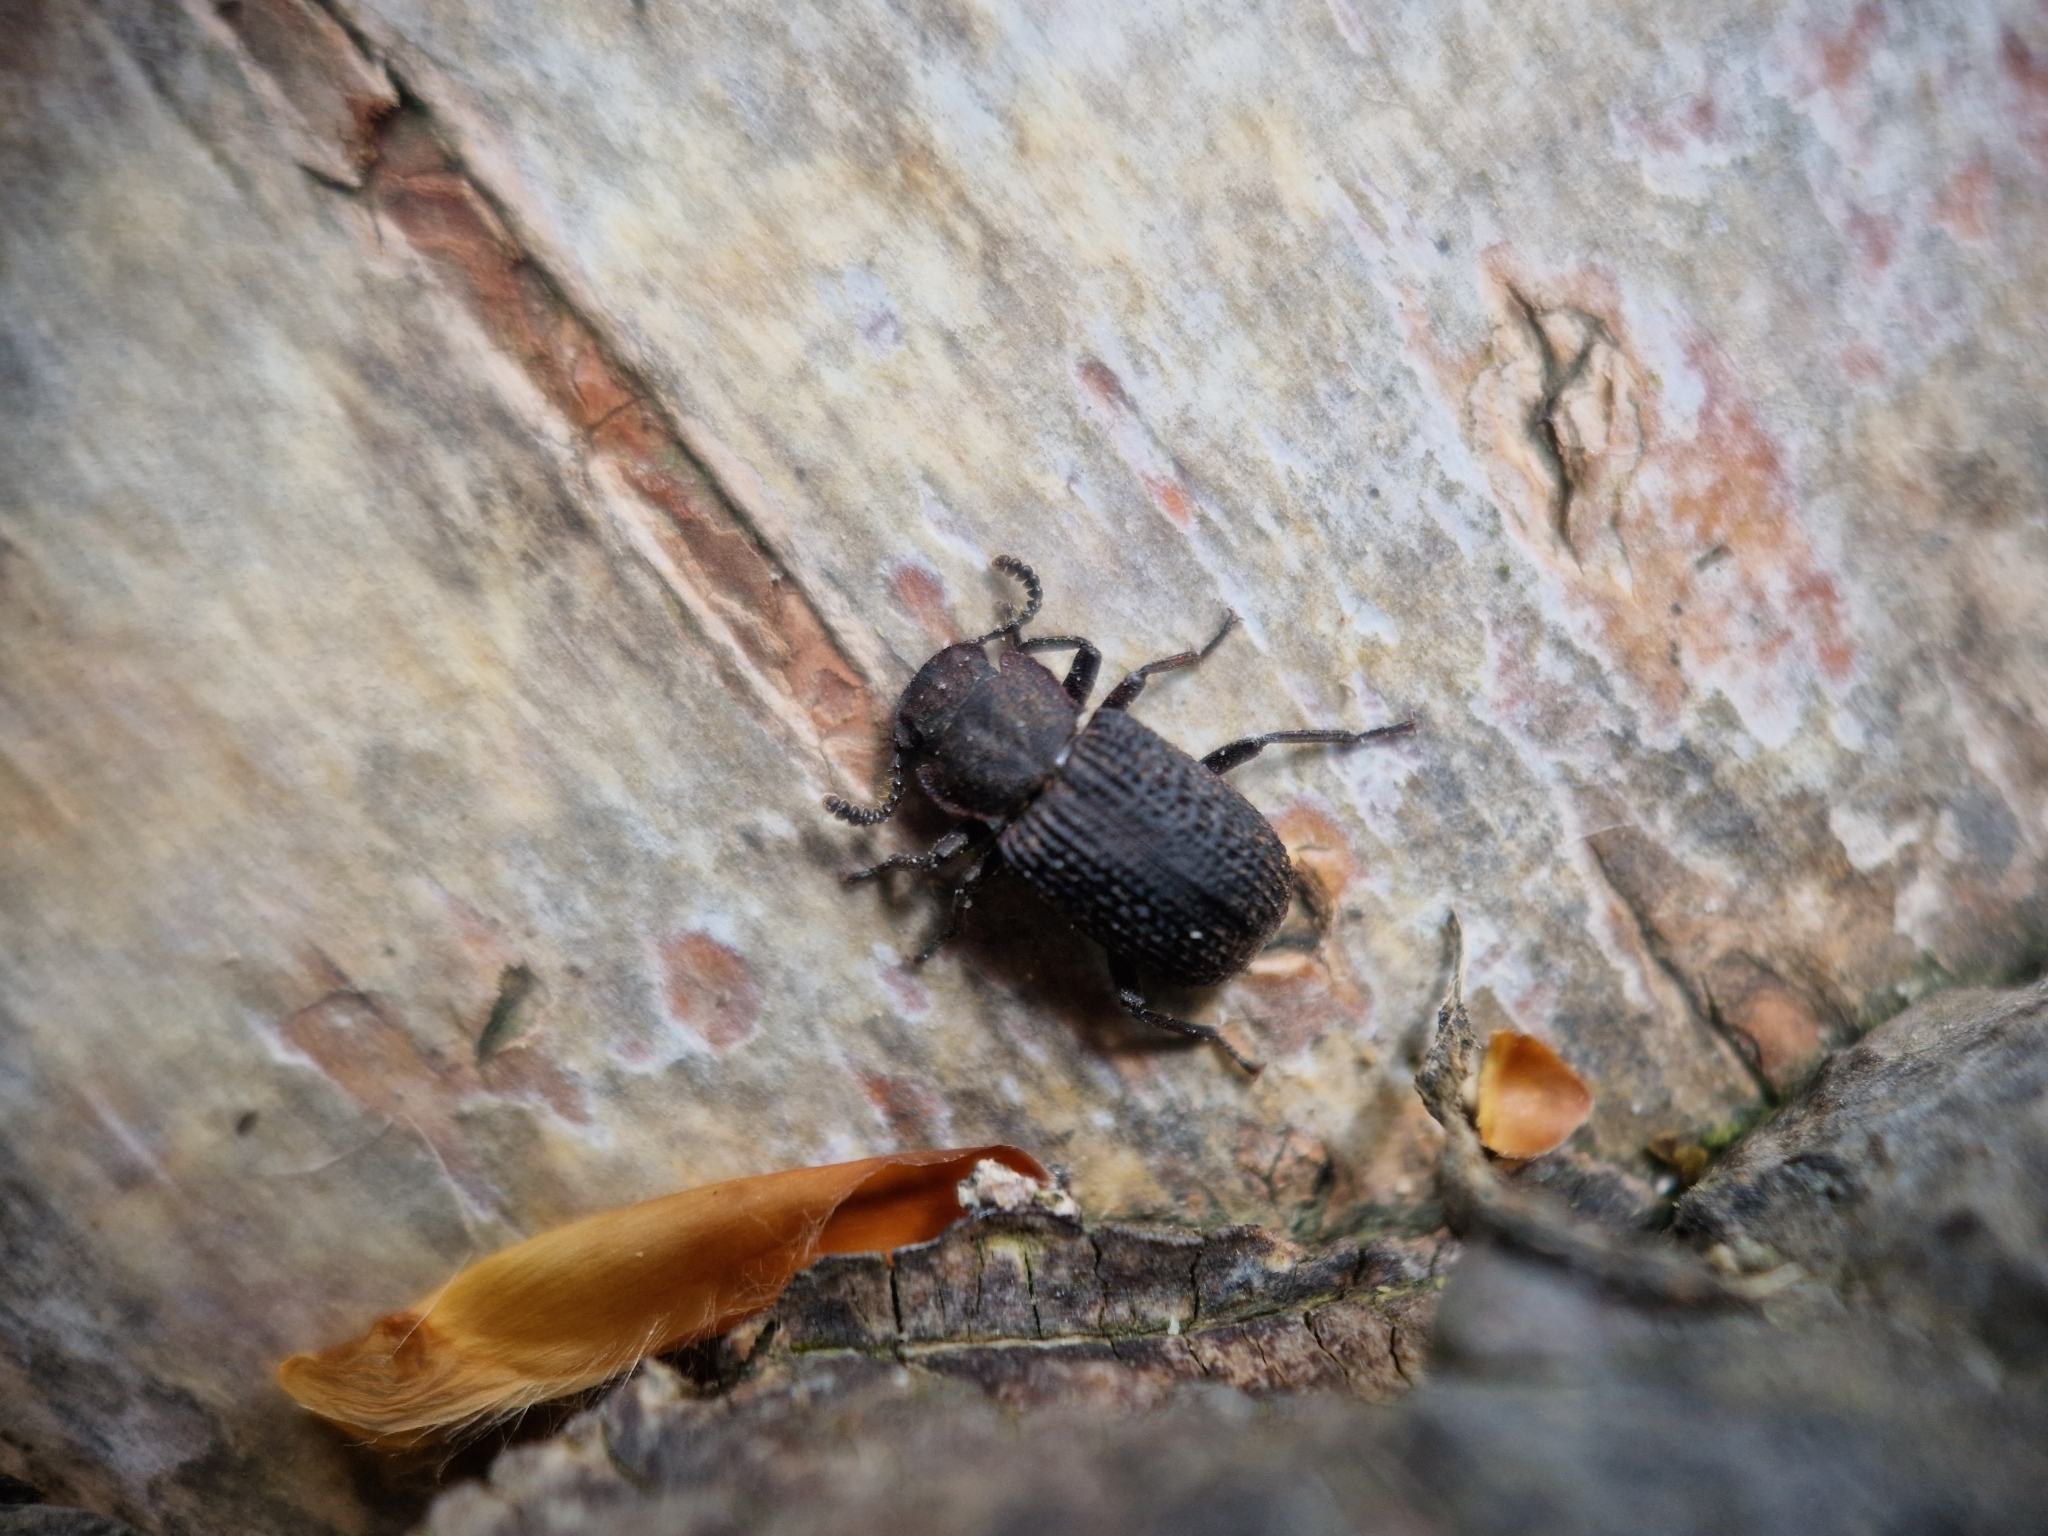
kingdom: Animalia
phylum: Arthropoda
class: Insecta
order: Coleoptera
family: Tenebrionidae
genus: Bolitophagus
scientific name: Bolitophagus reticulatus
